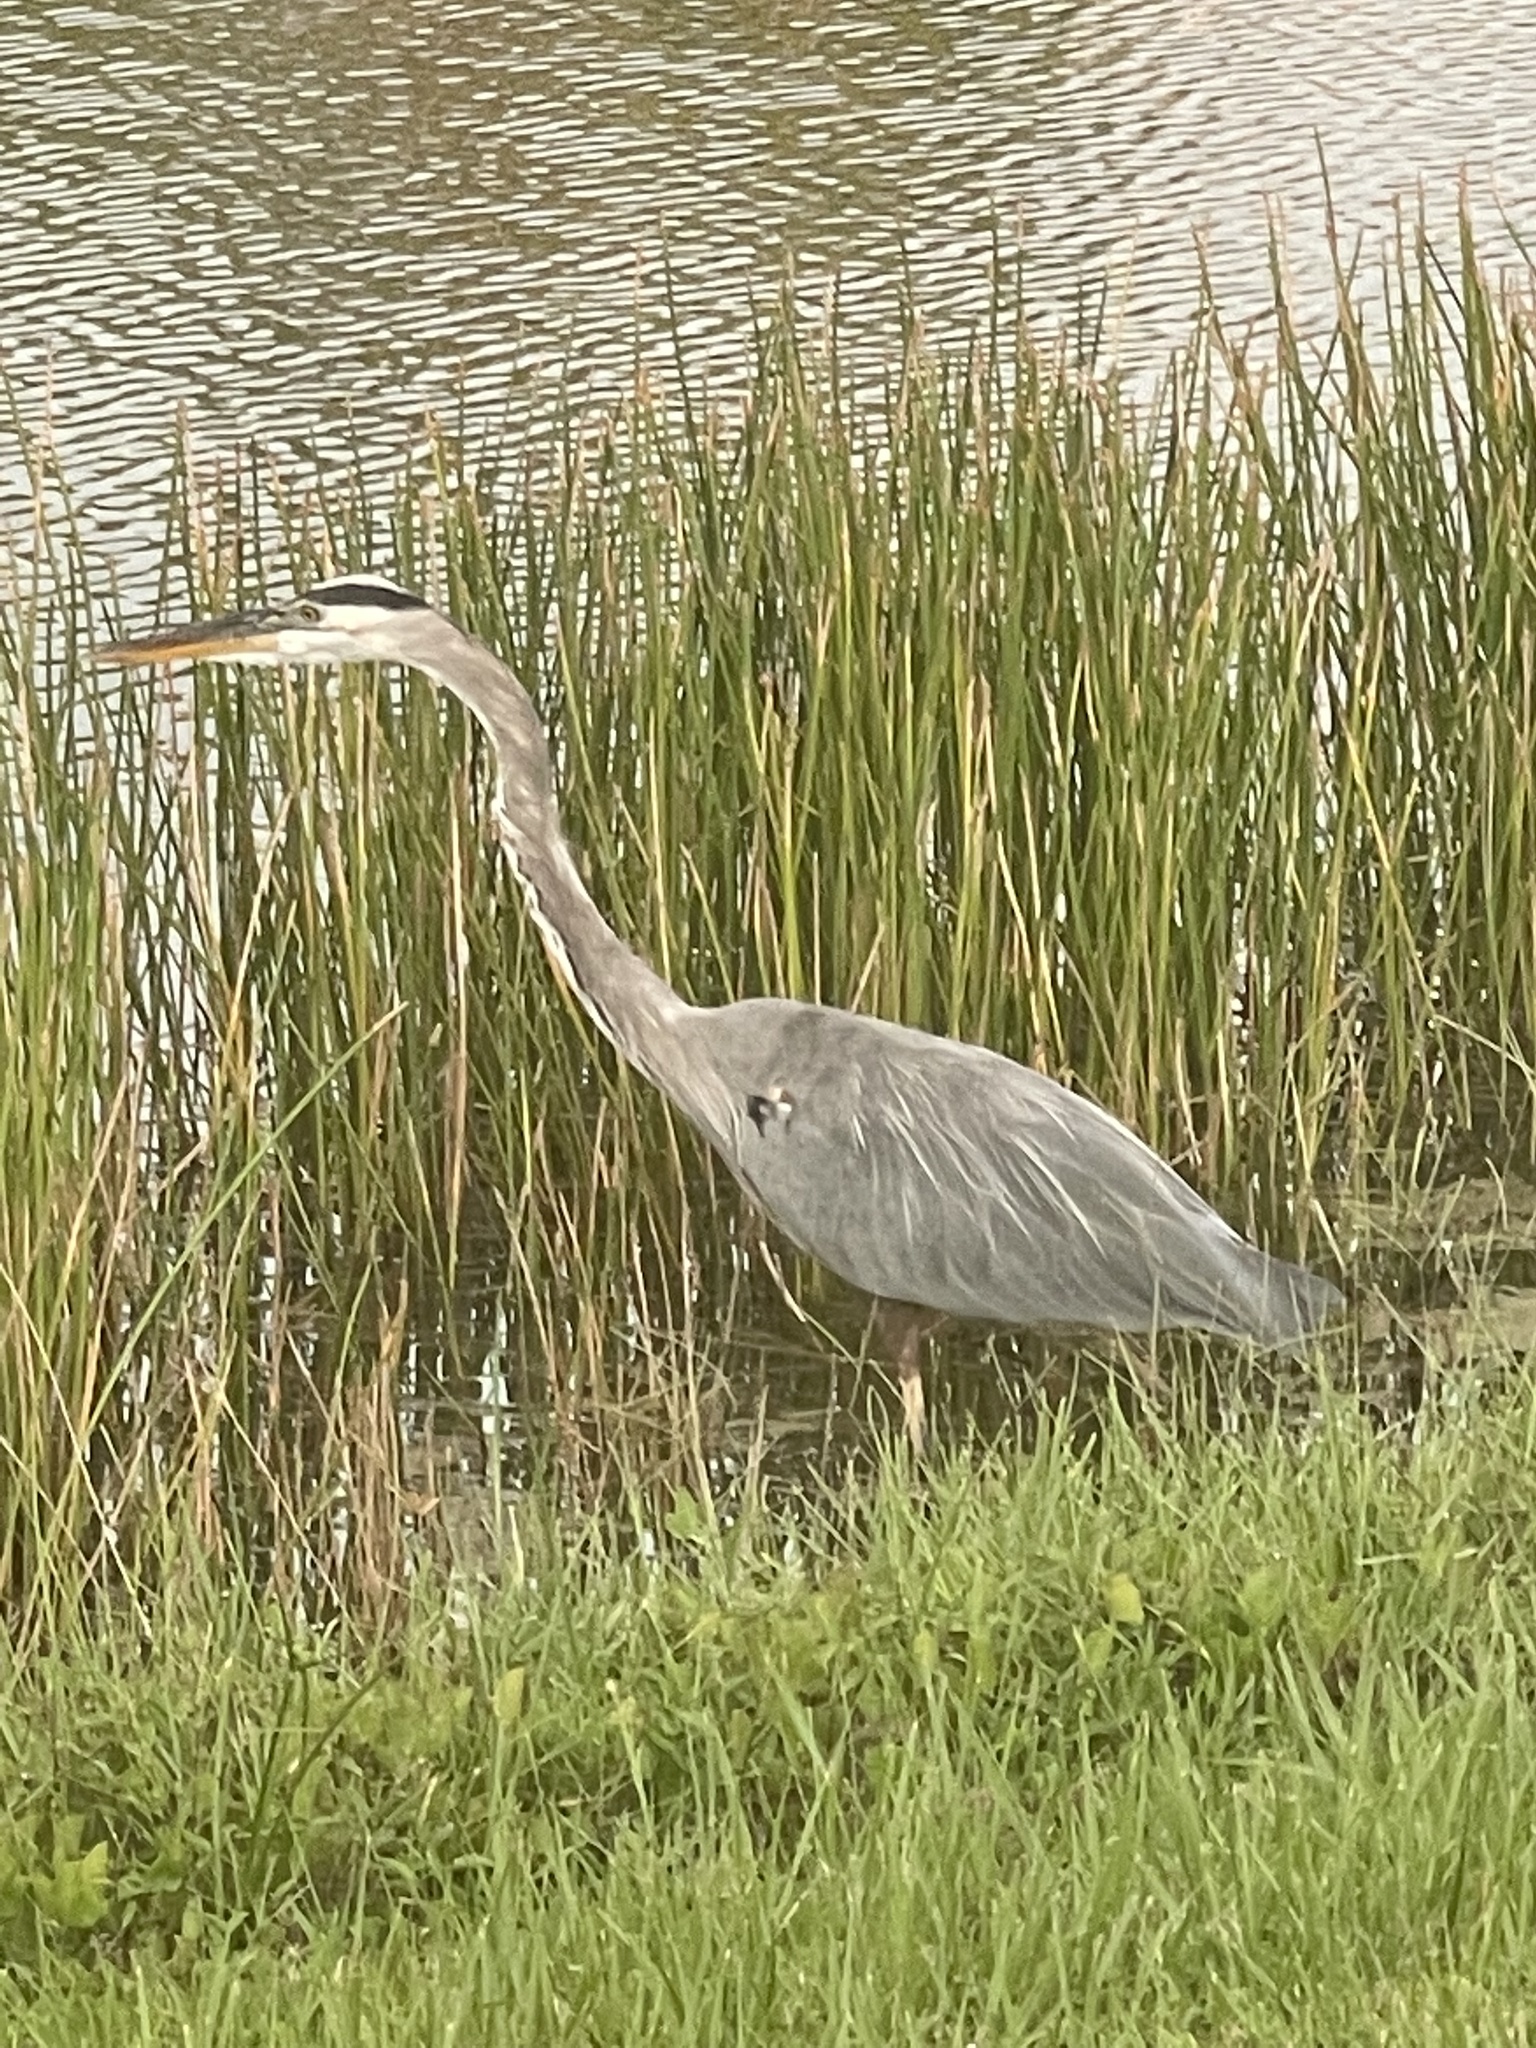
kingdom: Animalia
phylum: Chordata
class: Aves
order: Pelecaniformes
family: Ardeidae
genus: Ardea
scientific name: Ardea herodias
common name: Great blue heron
